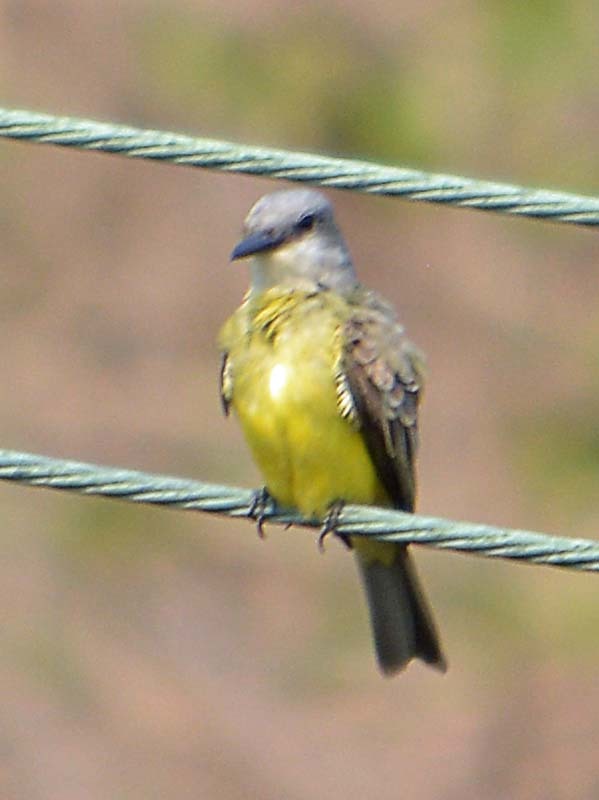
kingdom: Animalia
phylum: Chordata
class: Aves
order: Passeriformes
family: Tyrannidae
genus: Tyrannus
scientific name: Tyrannus melancholicus
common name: Tropical kingbird
